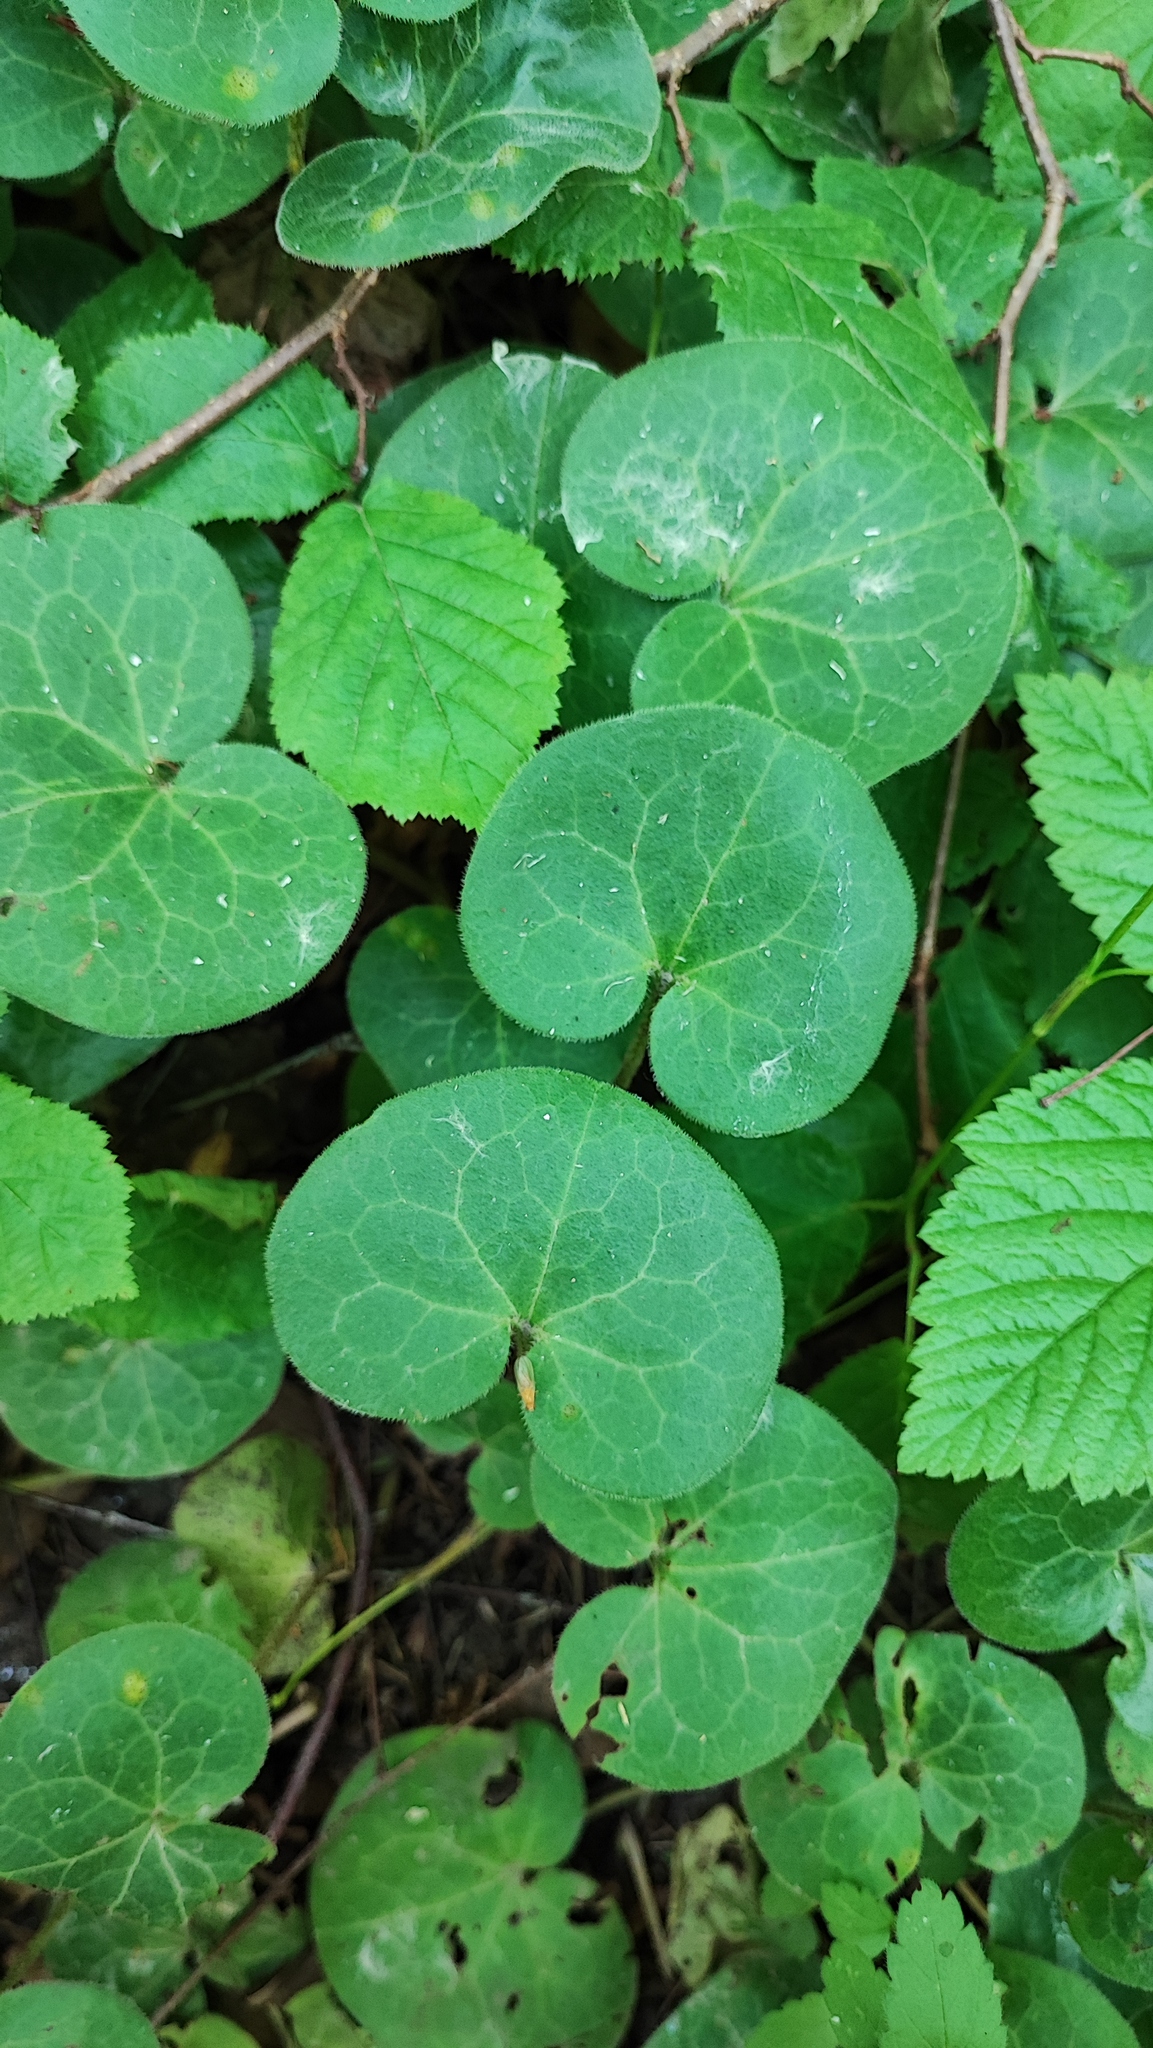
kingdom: Plantae
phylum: Tracheophyta
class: Magnoliopsida
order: Piperales
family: Aristolochiaceae
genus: Asarum
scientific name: Asarum europaeum
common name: Asarabacca
